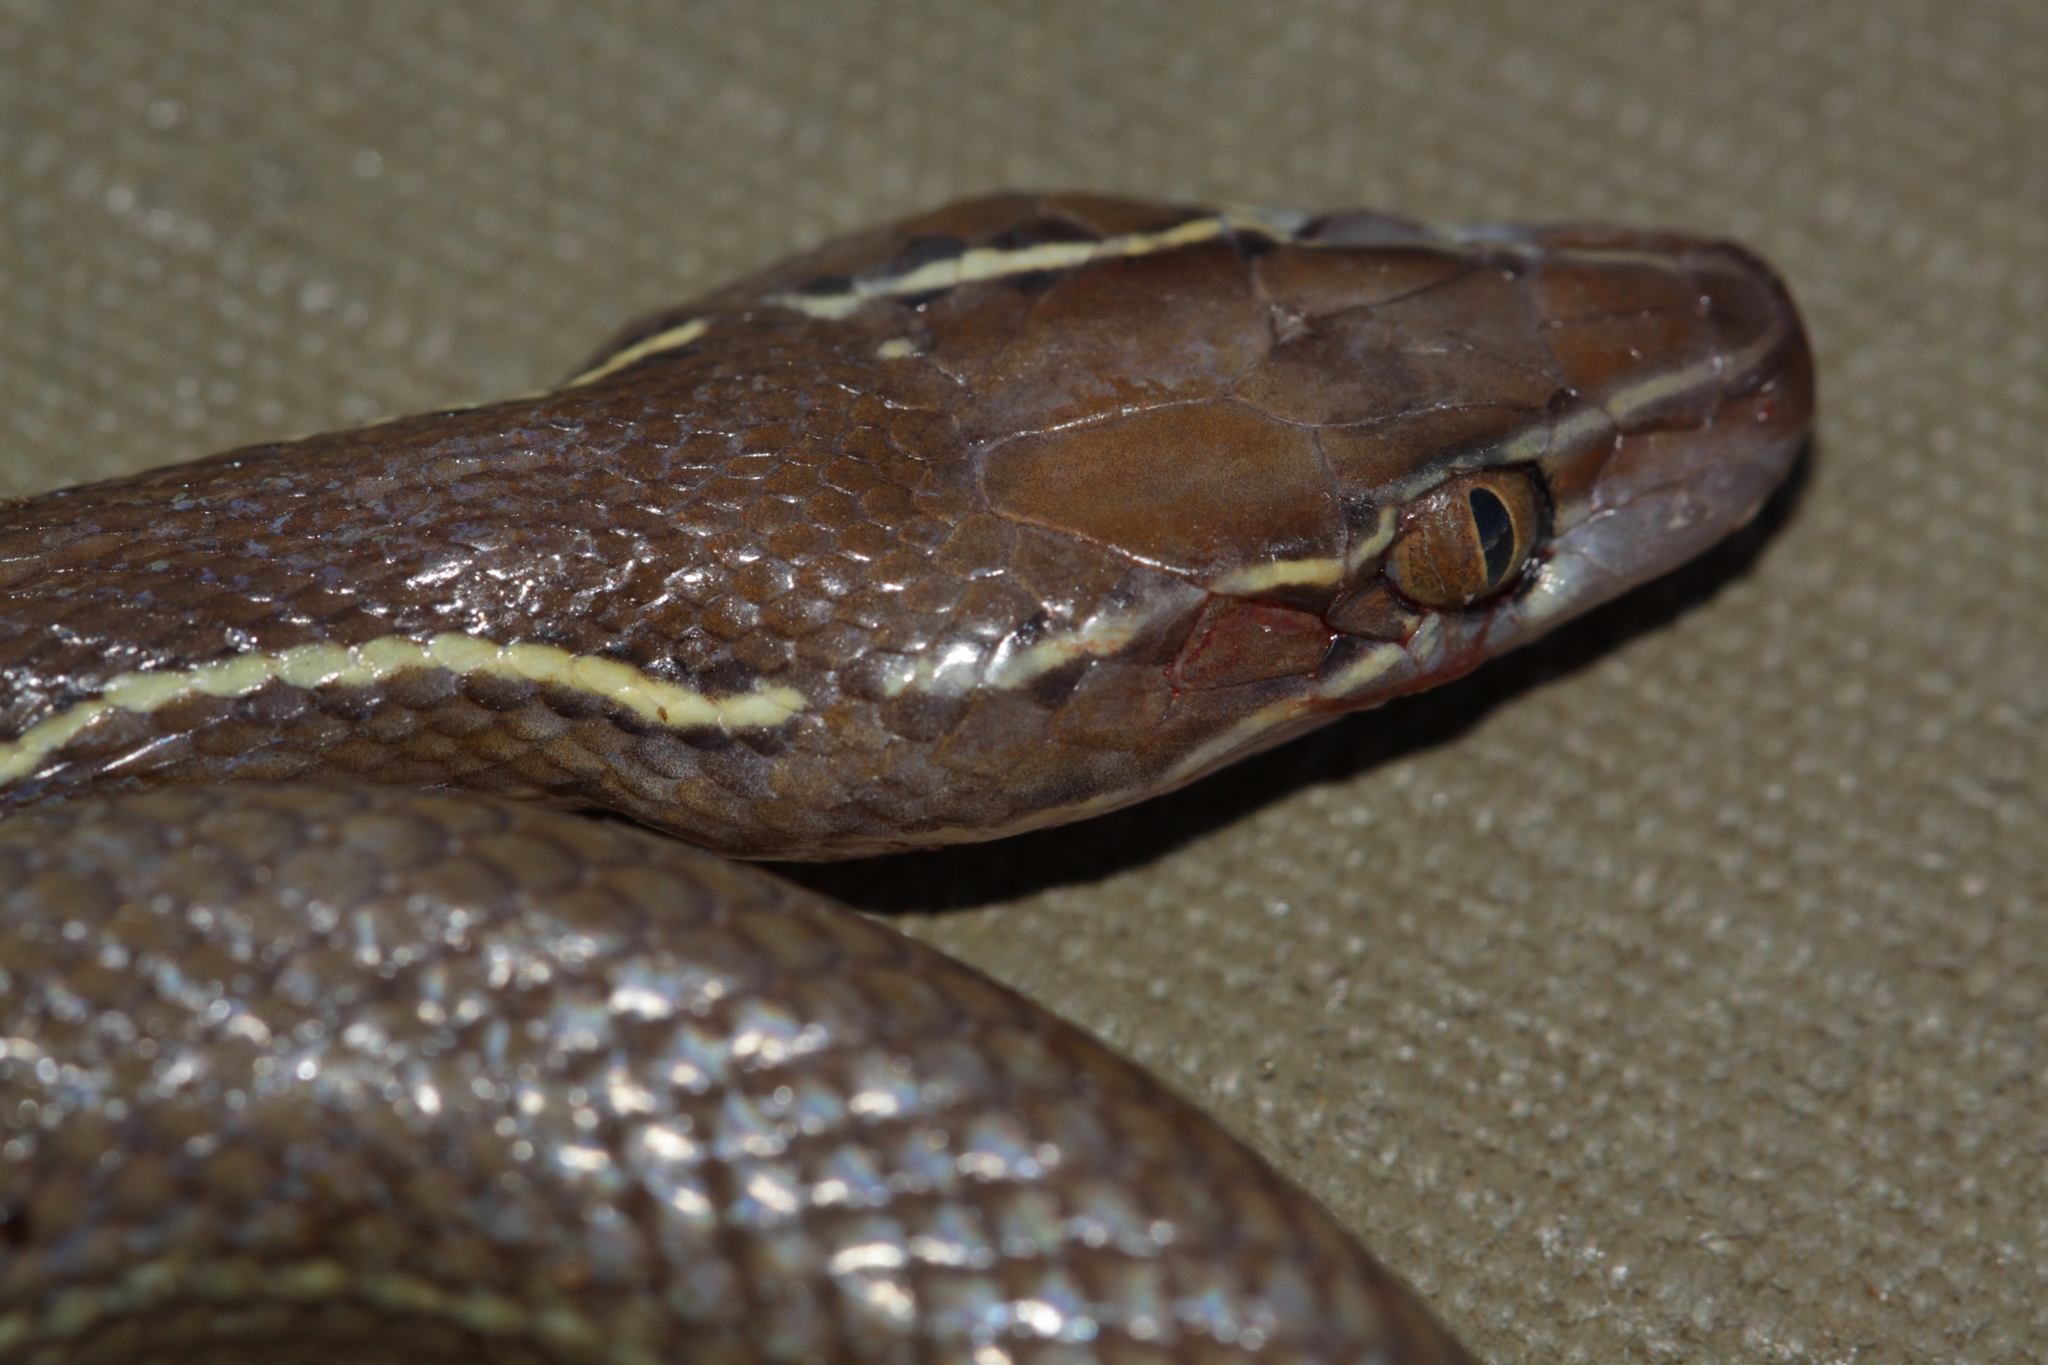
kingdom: Animalia
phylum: Chordata
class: Squamata
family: Lamprophiidae
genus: Boaedon
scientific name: Boaedon capensis
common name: Brown house snake
